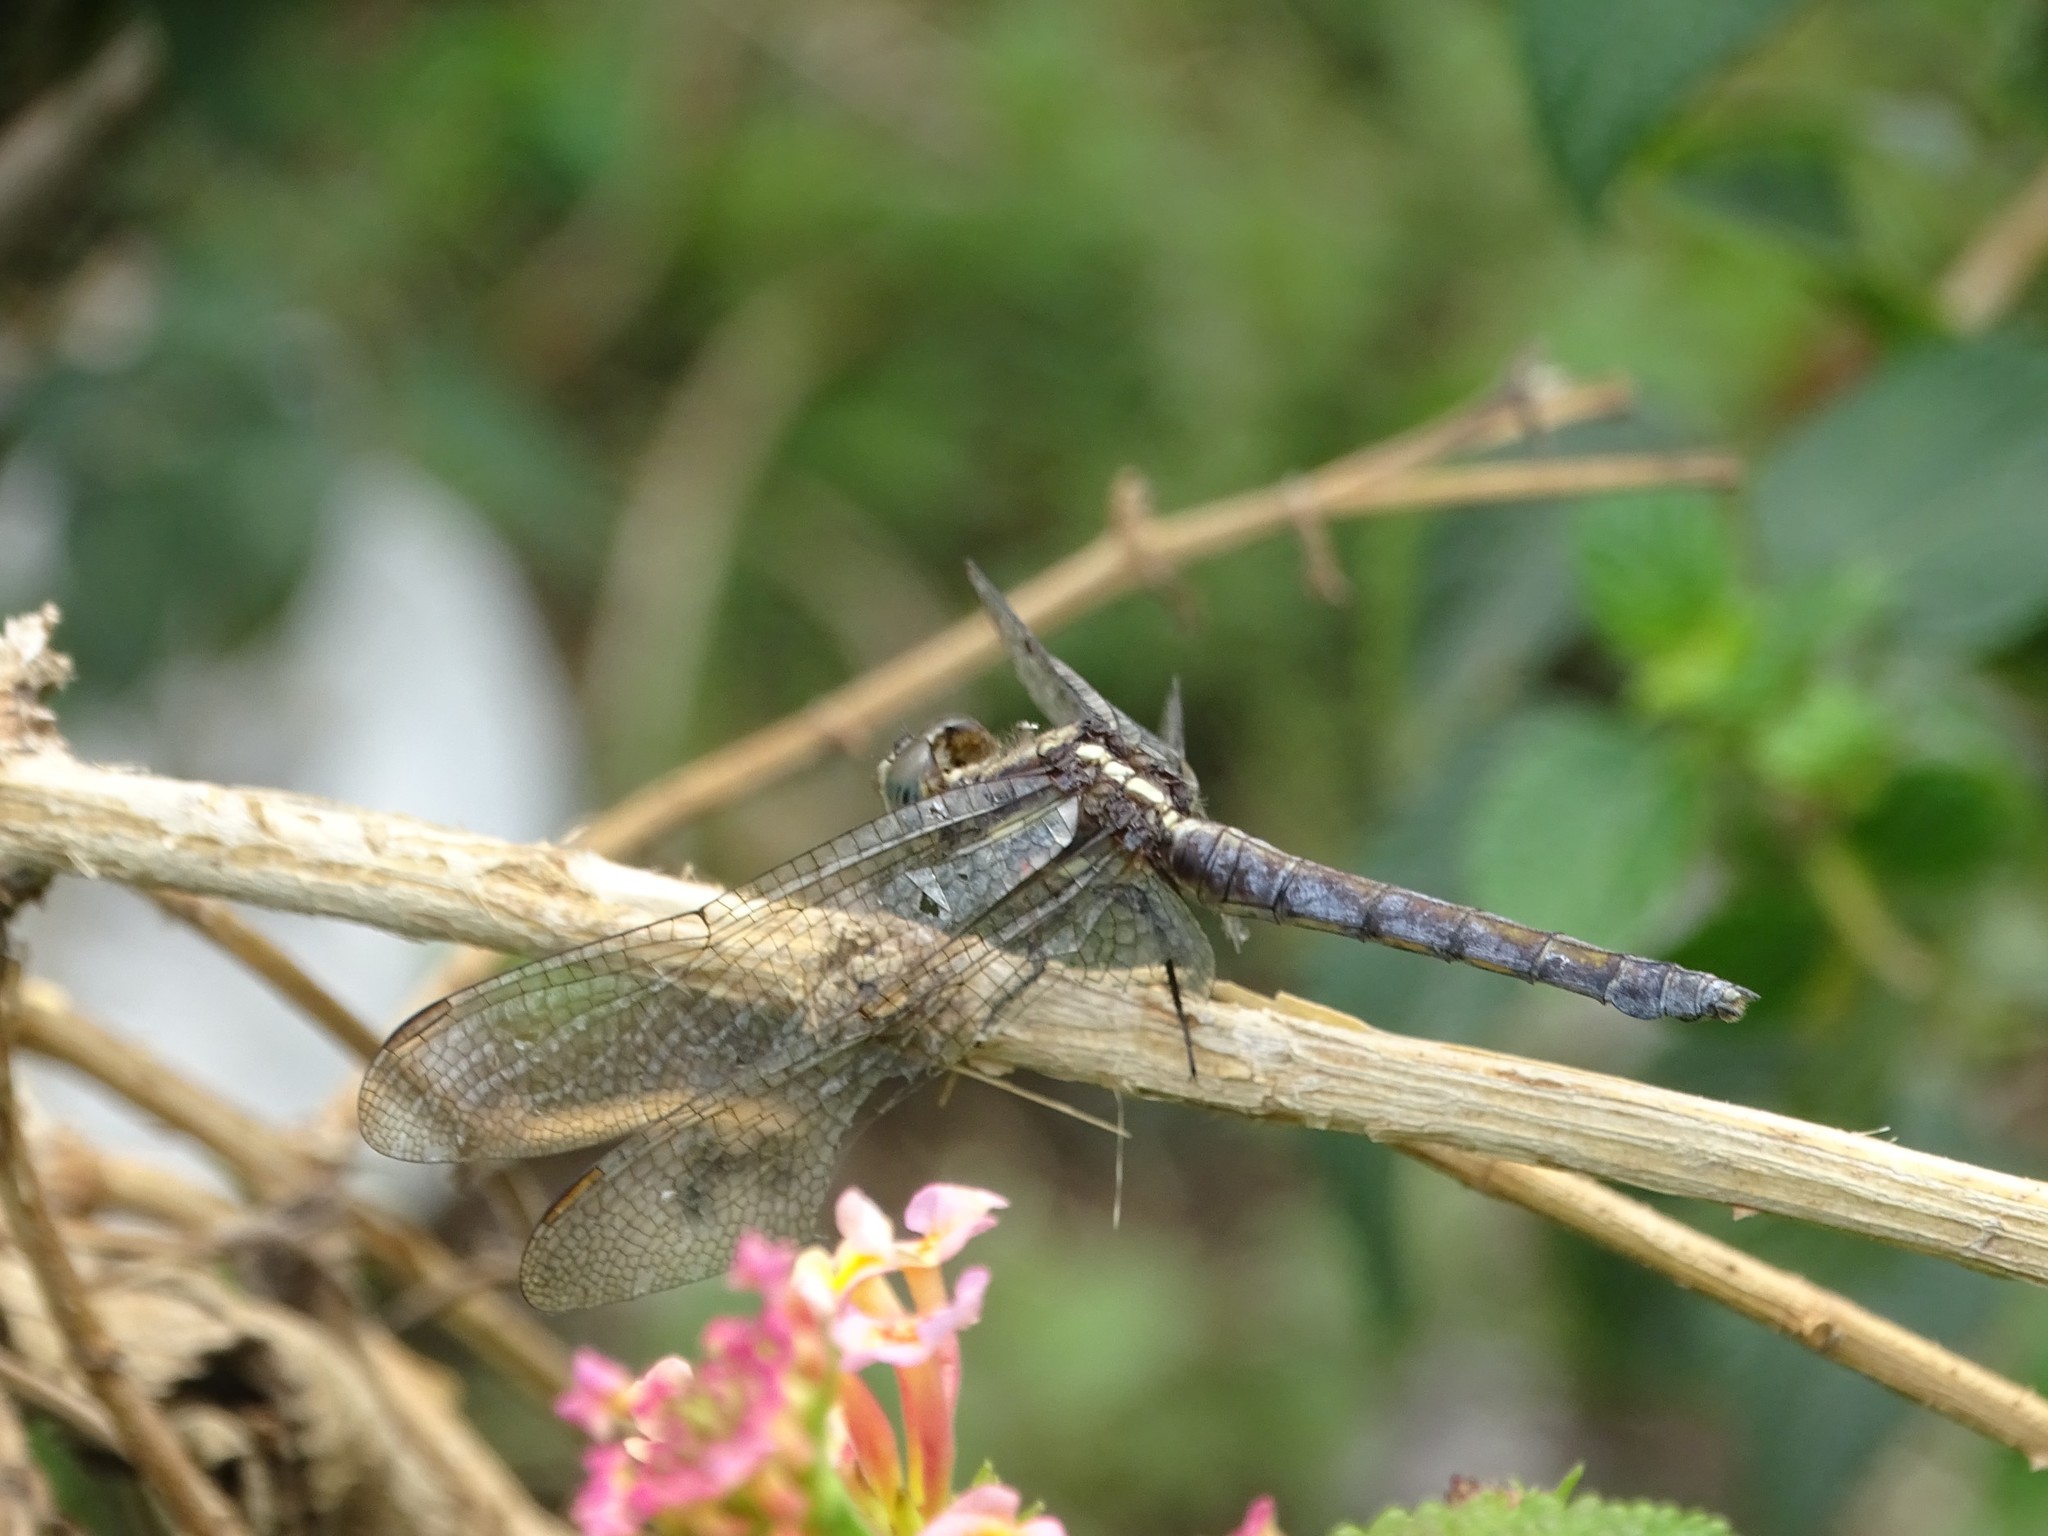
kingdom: Animalia
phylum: Arthropoda
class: Insecta
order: Odonata
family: Libellulidae
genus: Orthetrum
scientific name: Orthetrum triangulare
